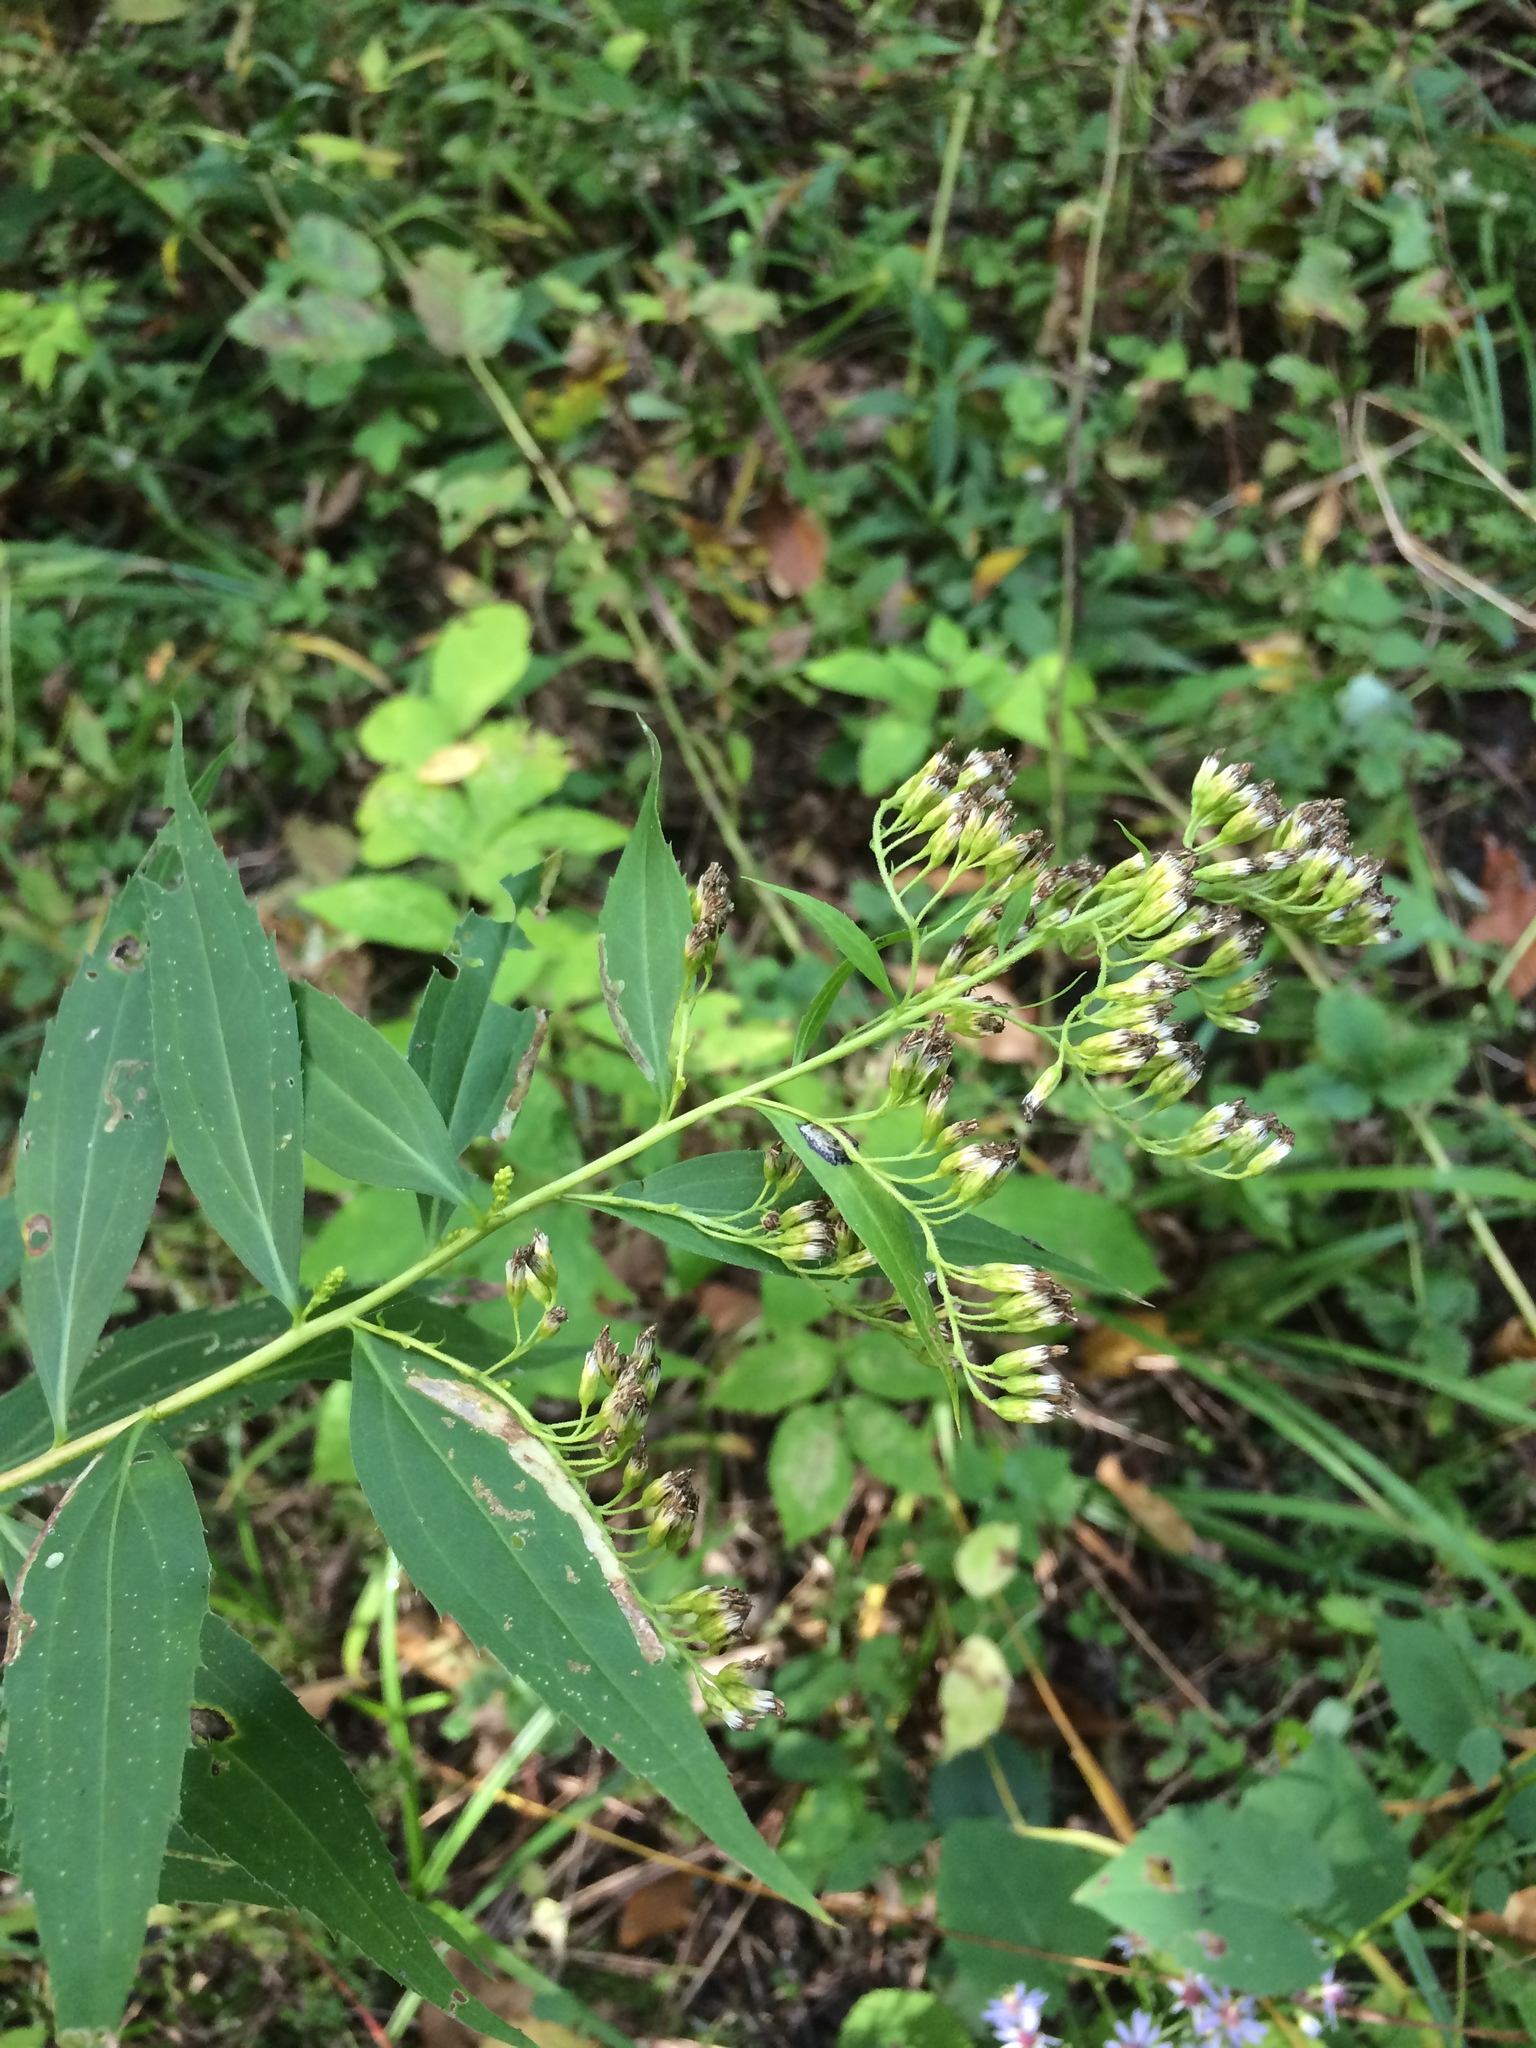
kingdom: Plantae
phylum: Tracheophyta
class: Magnoliopsida
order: Asterales
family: Asteraceae
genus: Solidago
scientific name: Solidago gigantea
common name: Giant goldenrod
